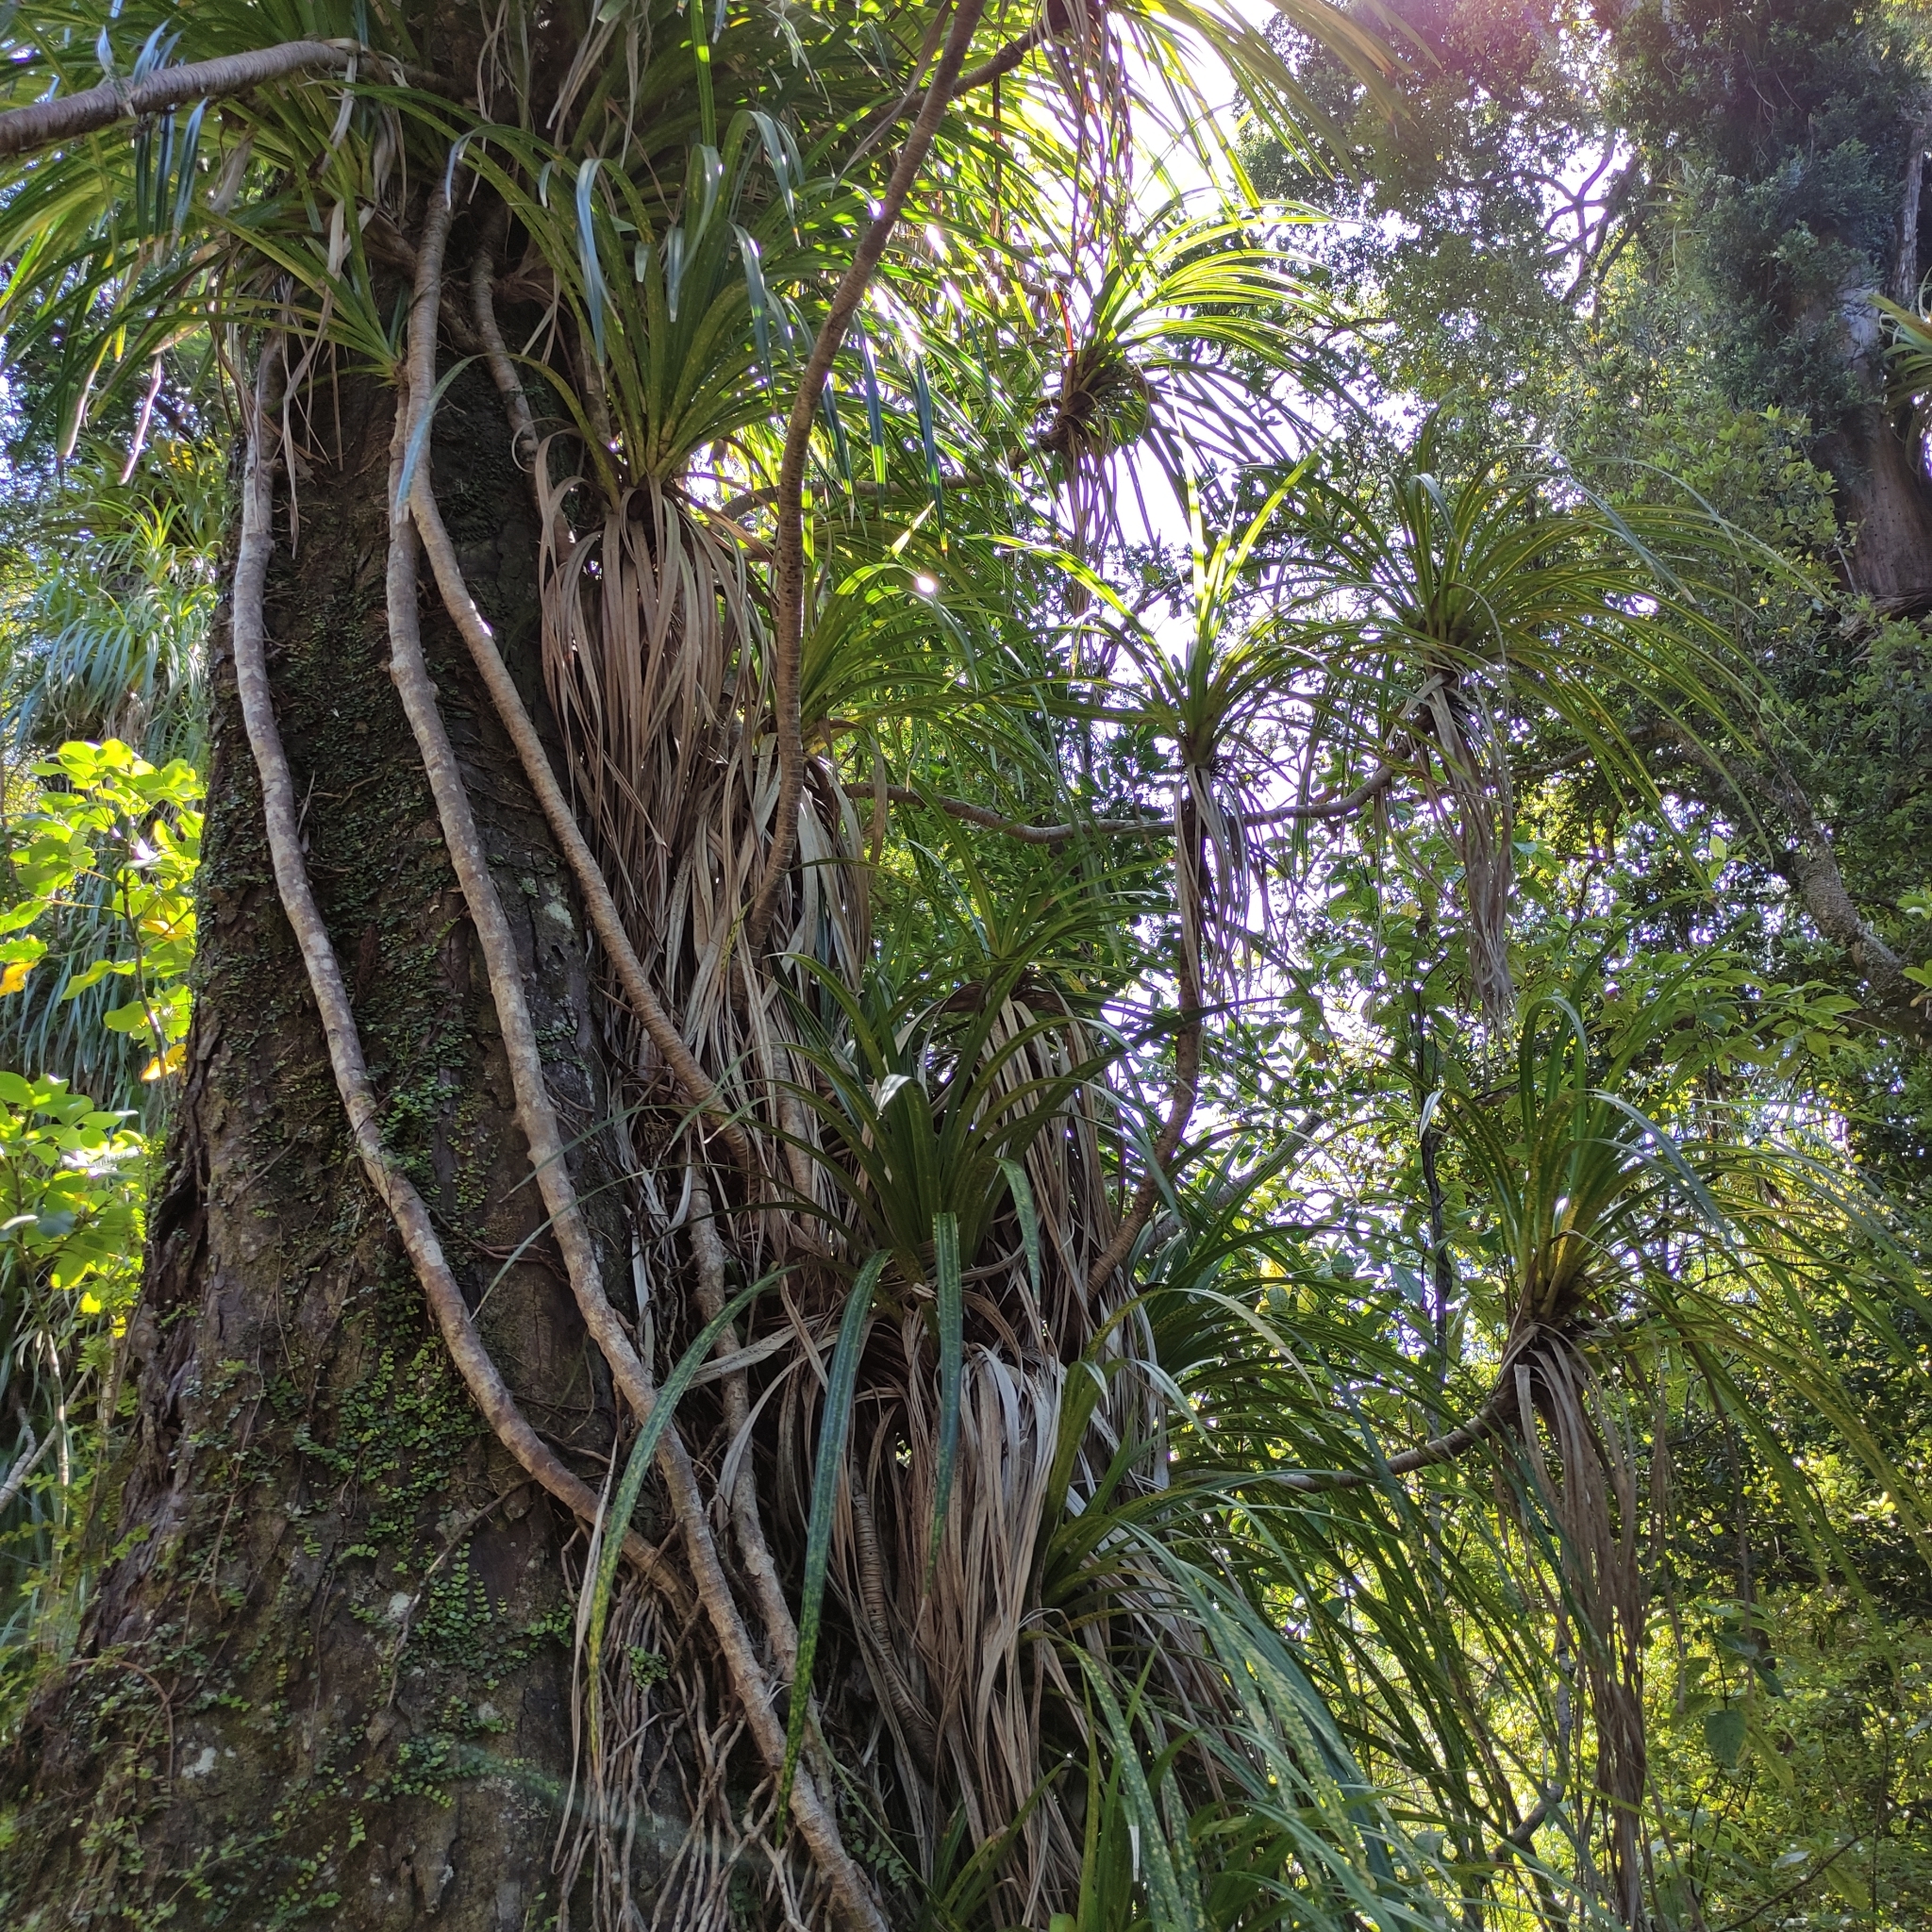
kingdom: Plantae
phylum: Tracheophyta
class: Liliopsida
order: Pandanales
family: Pandanaceae
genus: Freycinetia
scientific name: Freycinetia banksii
